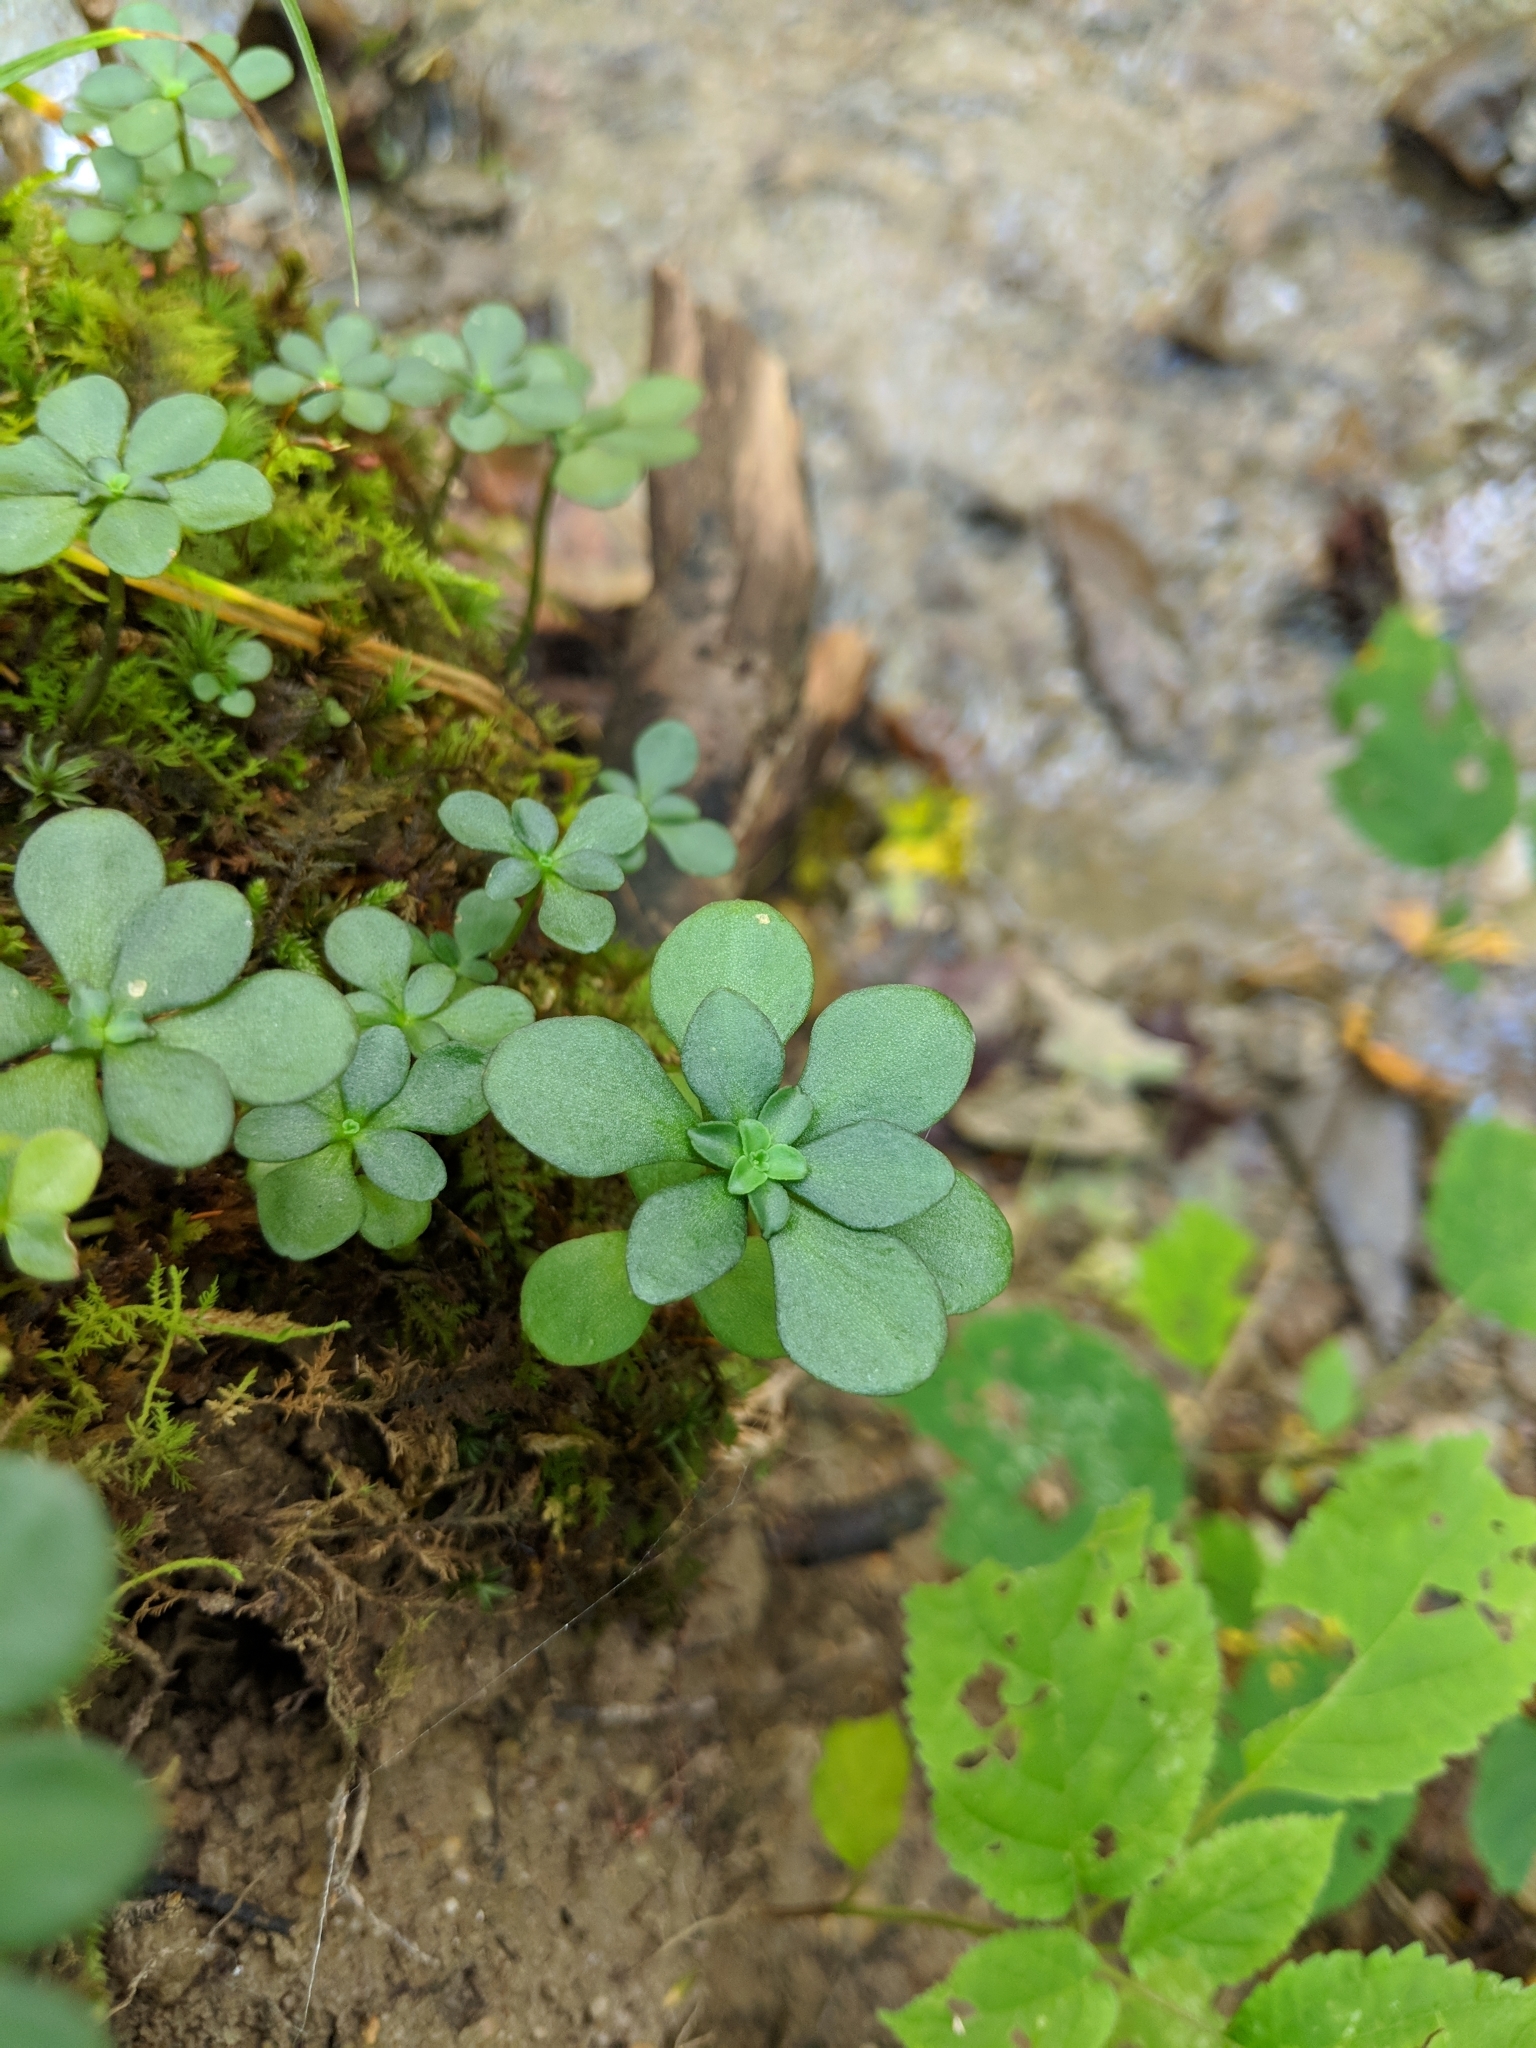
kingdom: Plantae
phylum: Tracheophyta
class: Magnoliopsida
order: Saxifragales
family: Crassulaceae
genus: Sedum
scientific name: Sedum ternatum
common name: Wild stonecrop
